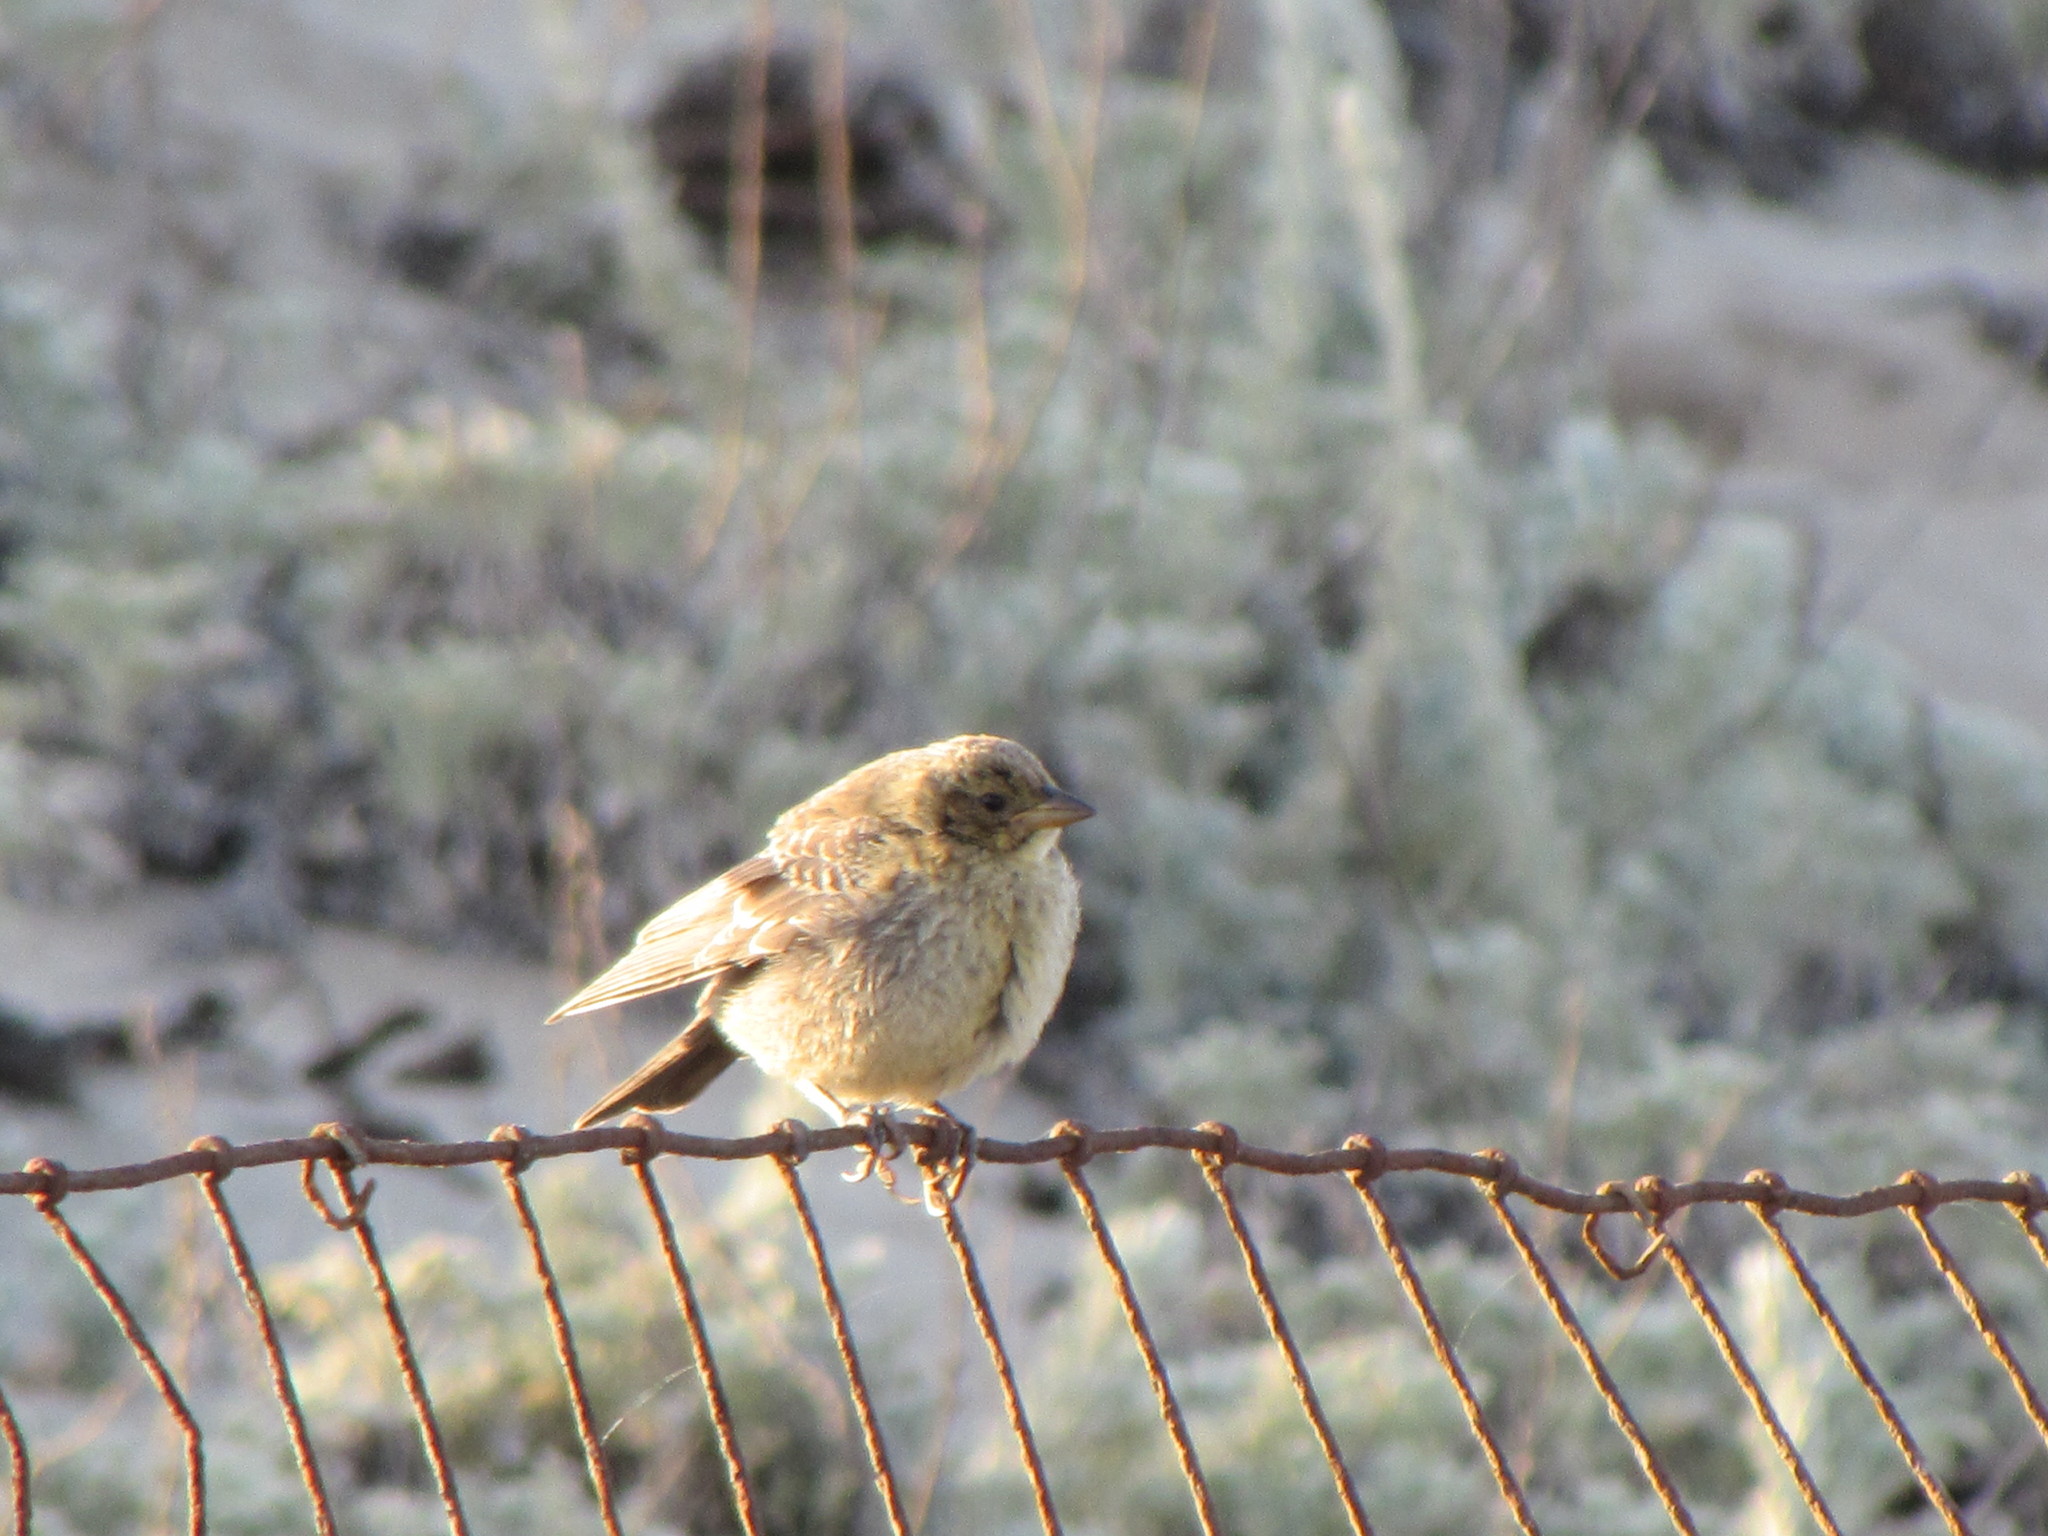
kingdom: Animalia
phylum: Chordata
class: Aves
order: Passeriformes
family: Icteridae
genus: Molothrus
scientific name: Molothrus ater
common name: Brown-headed cowbird
